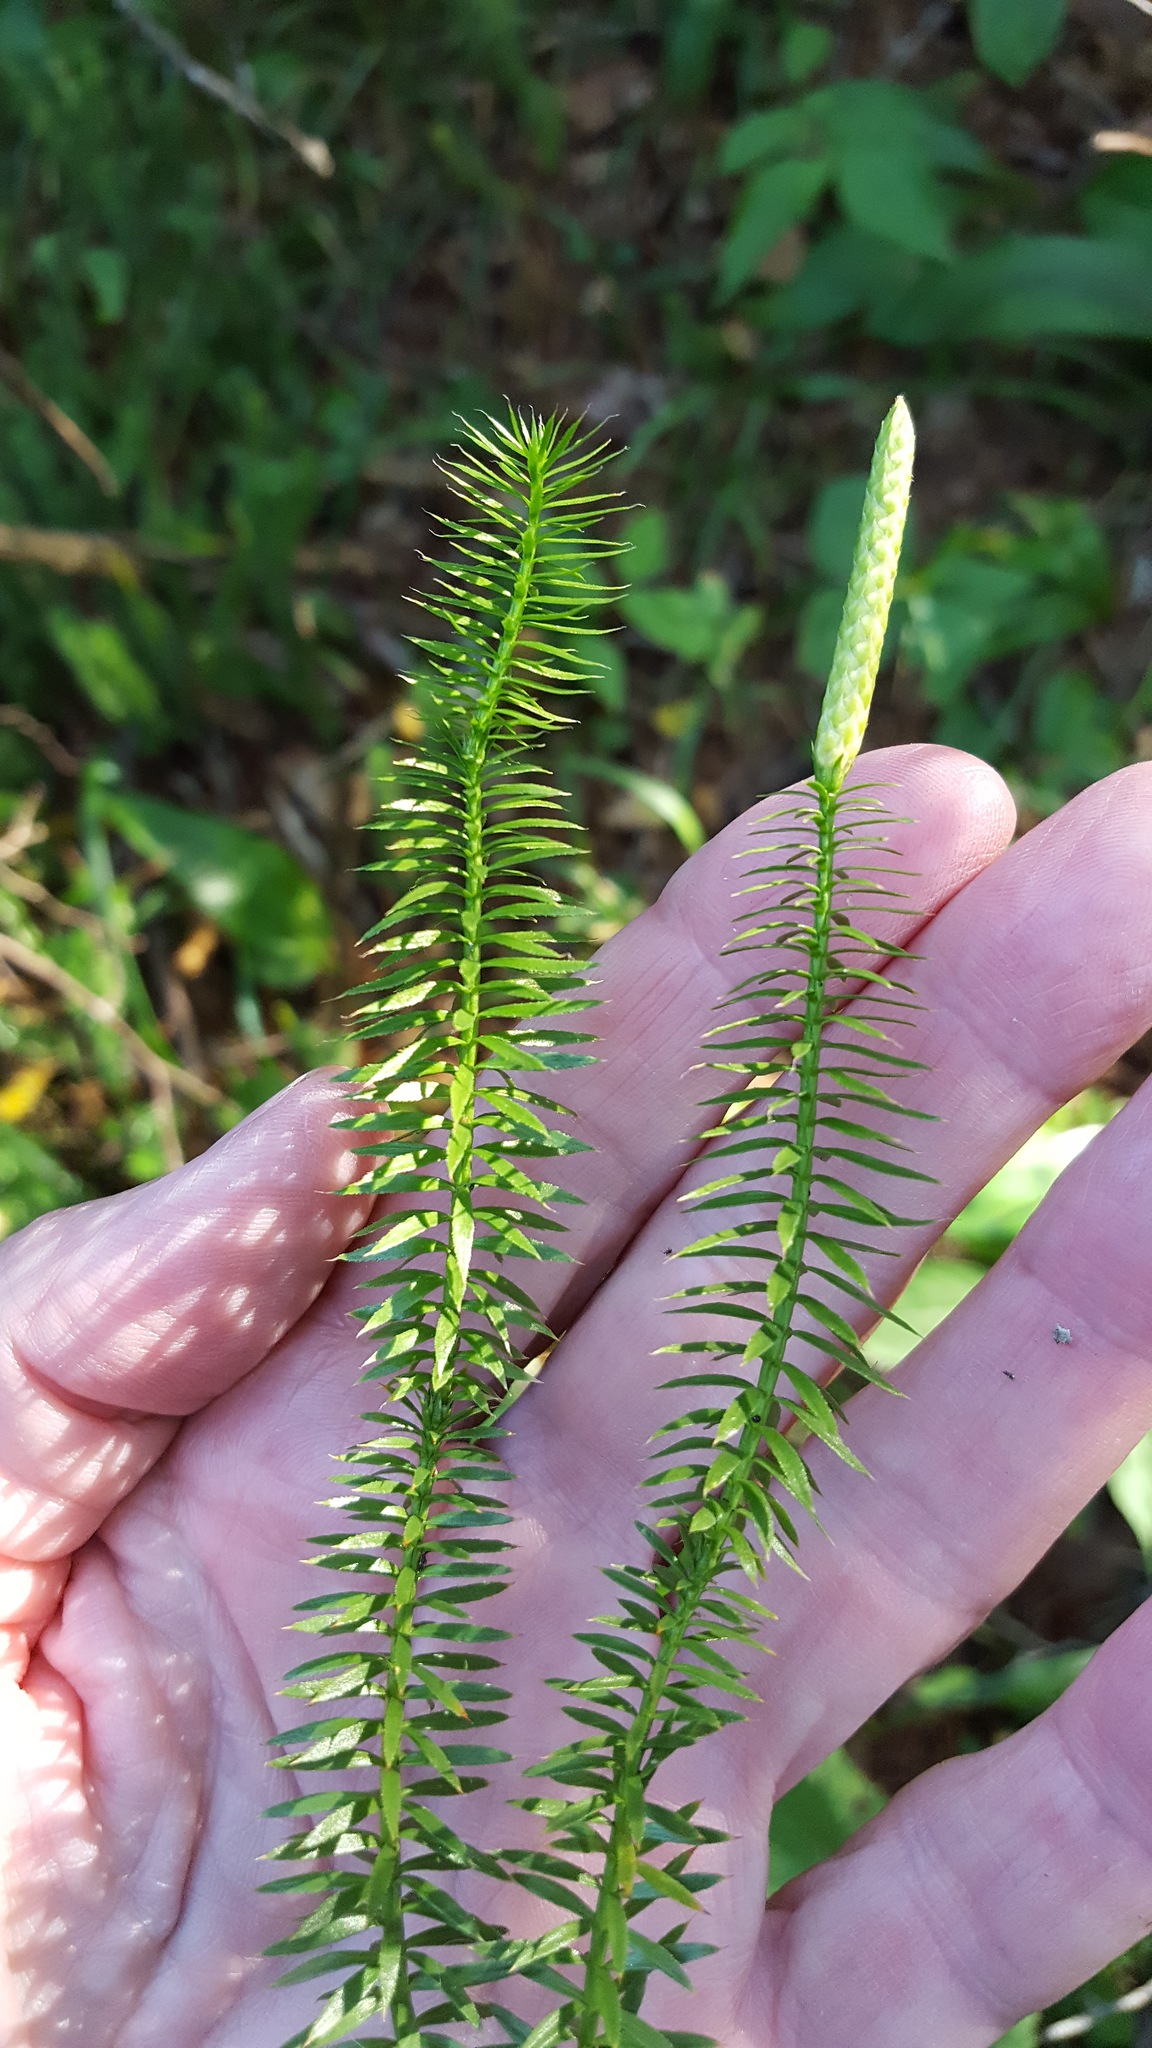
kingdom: Plantae
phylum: Tracheophyta
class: Lycopodiopsida
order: Lycopodiales
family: Lycopodiaceae
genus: Spinulum
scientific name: Spinulum annotinum
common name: Interrupted club-moss
